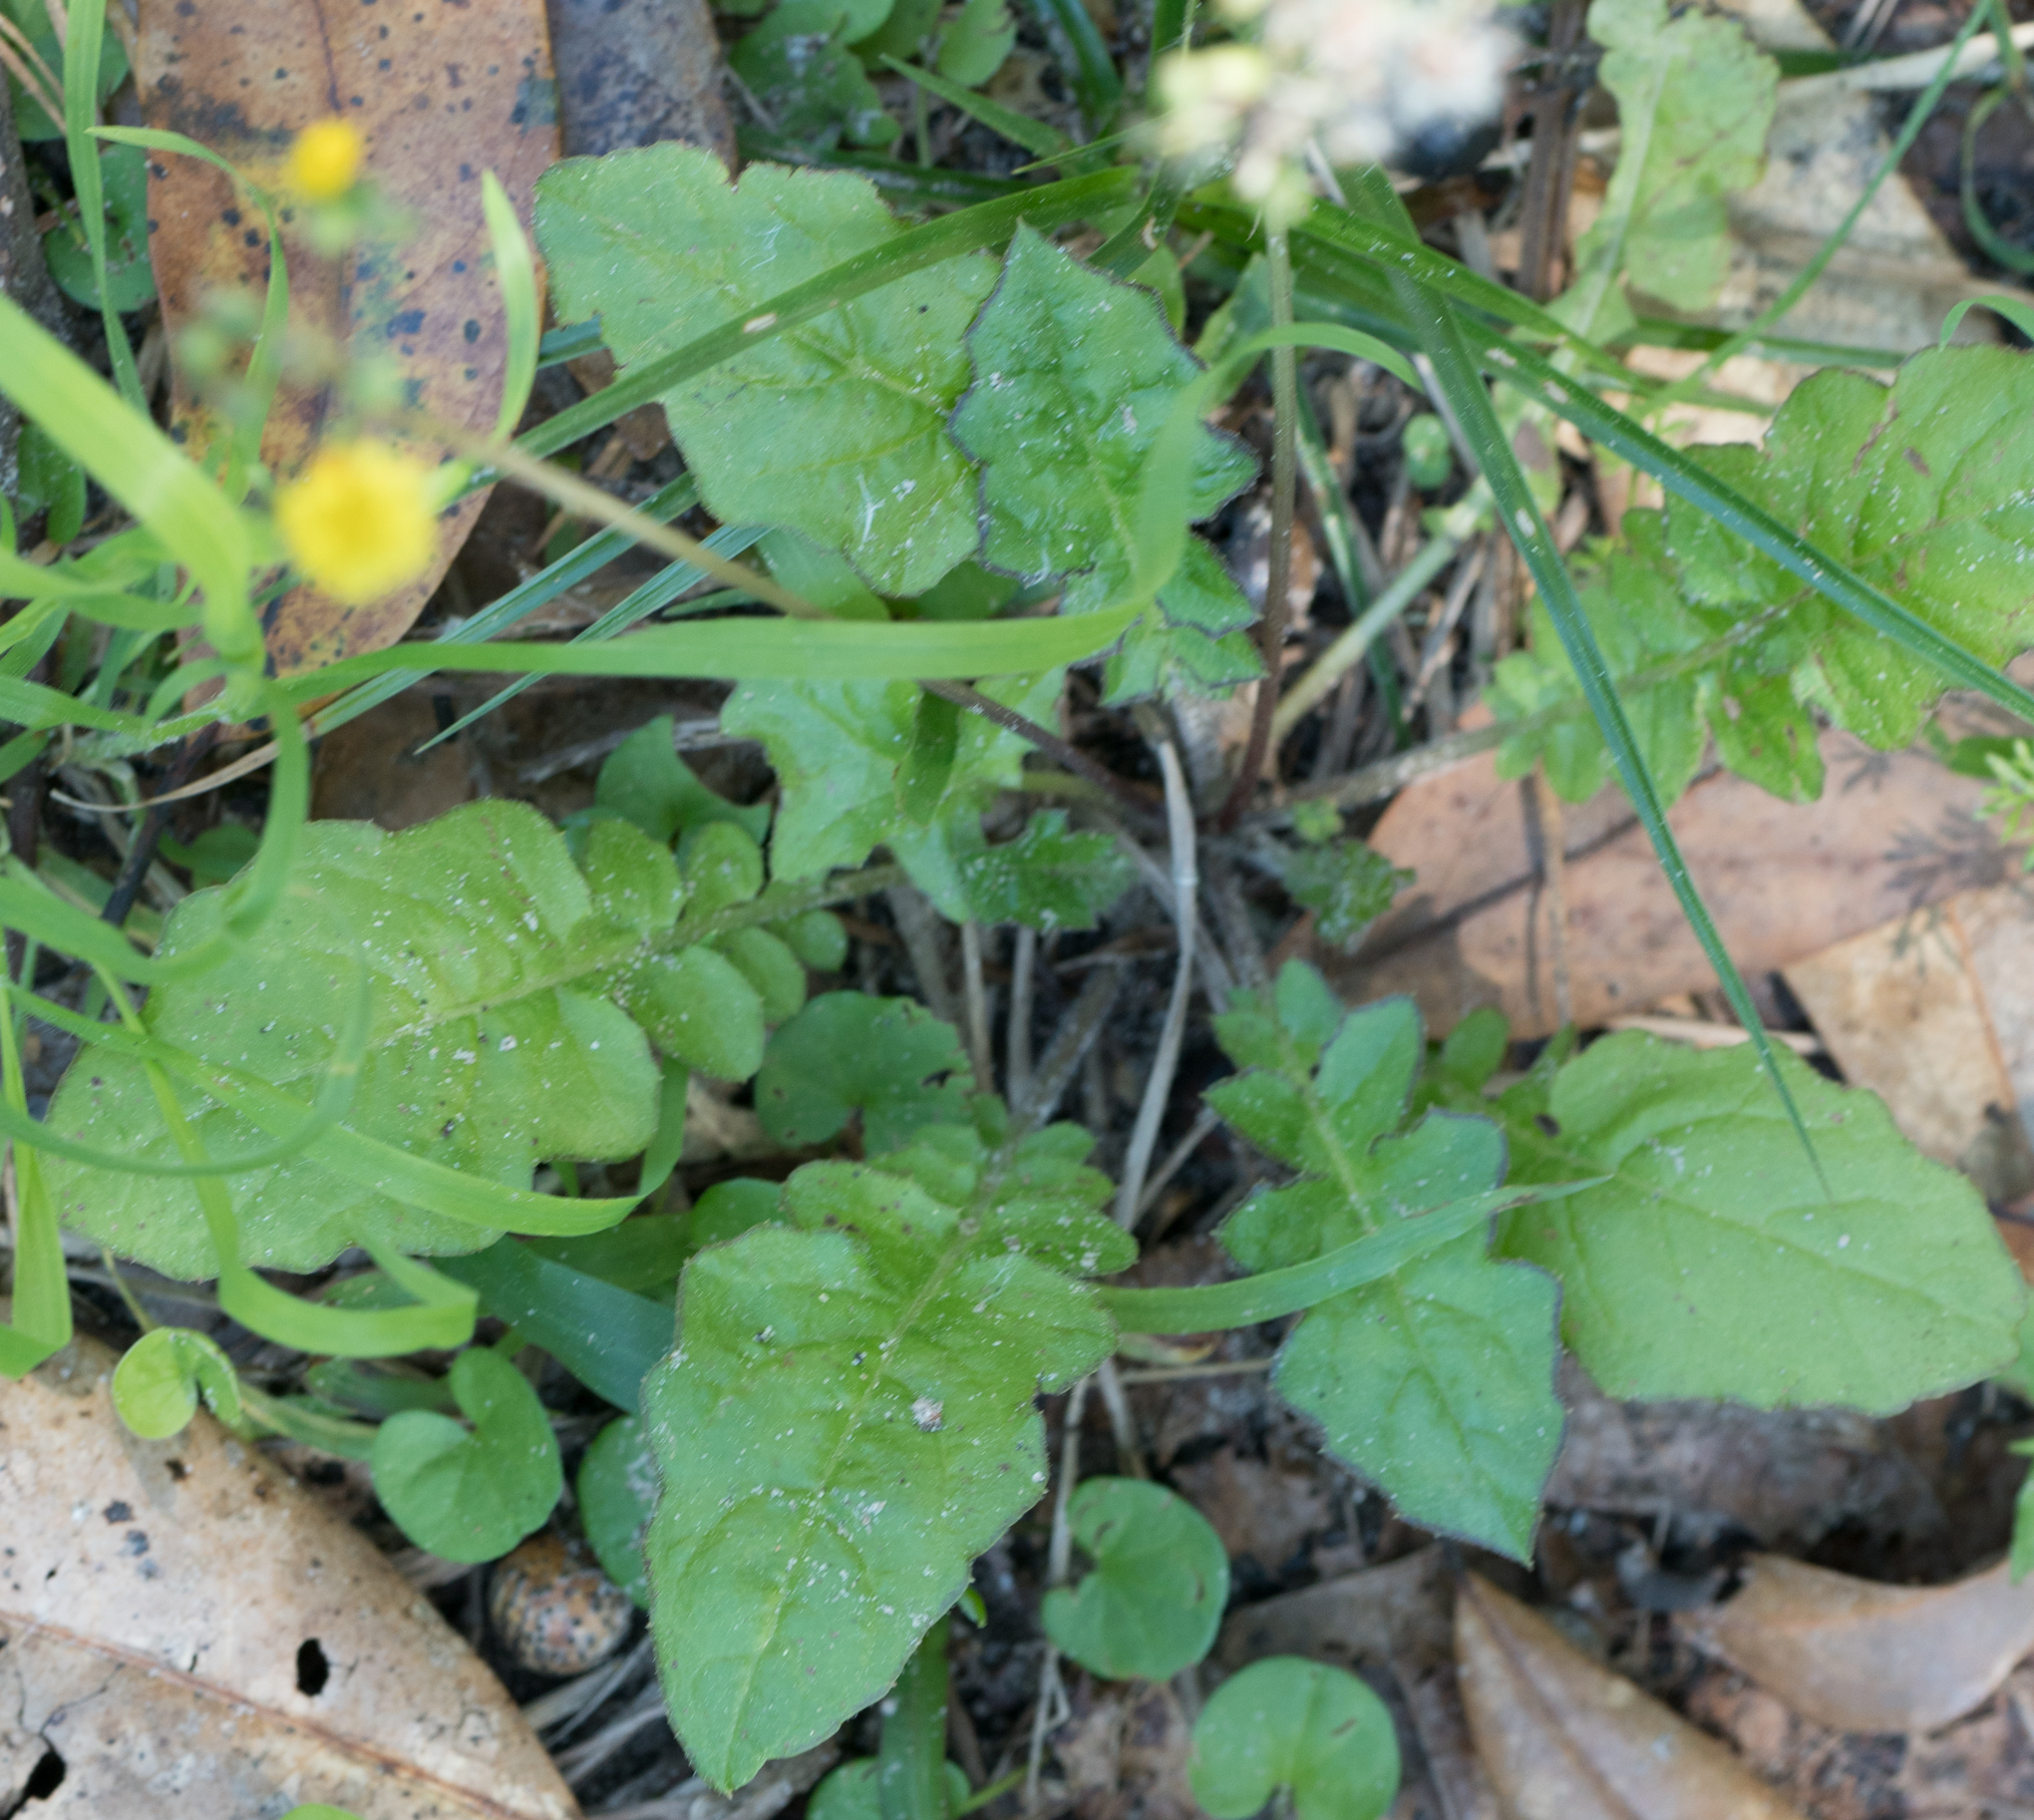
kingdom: Plantae
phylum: Tracheophyta
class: Magnoliopsida
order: Asterales
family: Asteraceae
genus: Youngia
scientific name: Youngia japonica
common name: Oriental false hawksbeard
